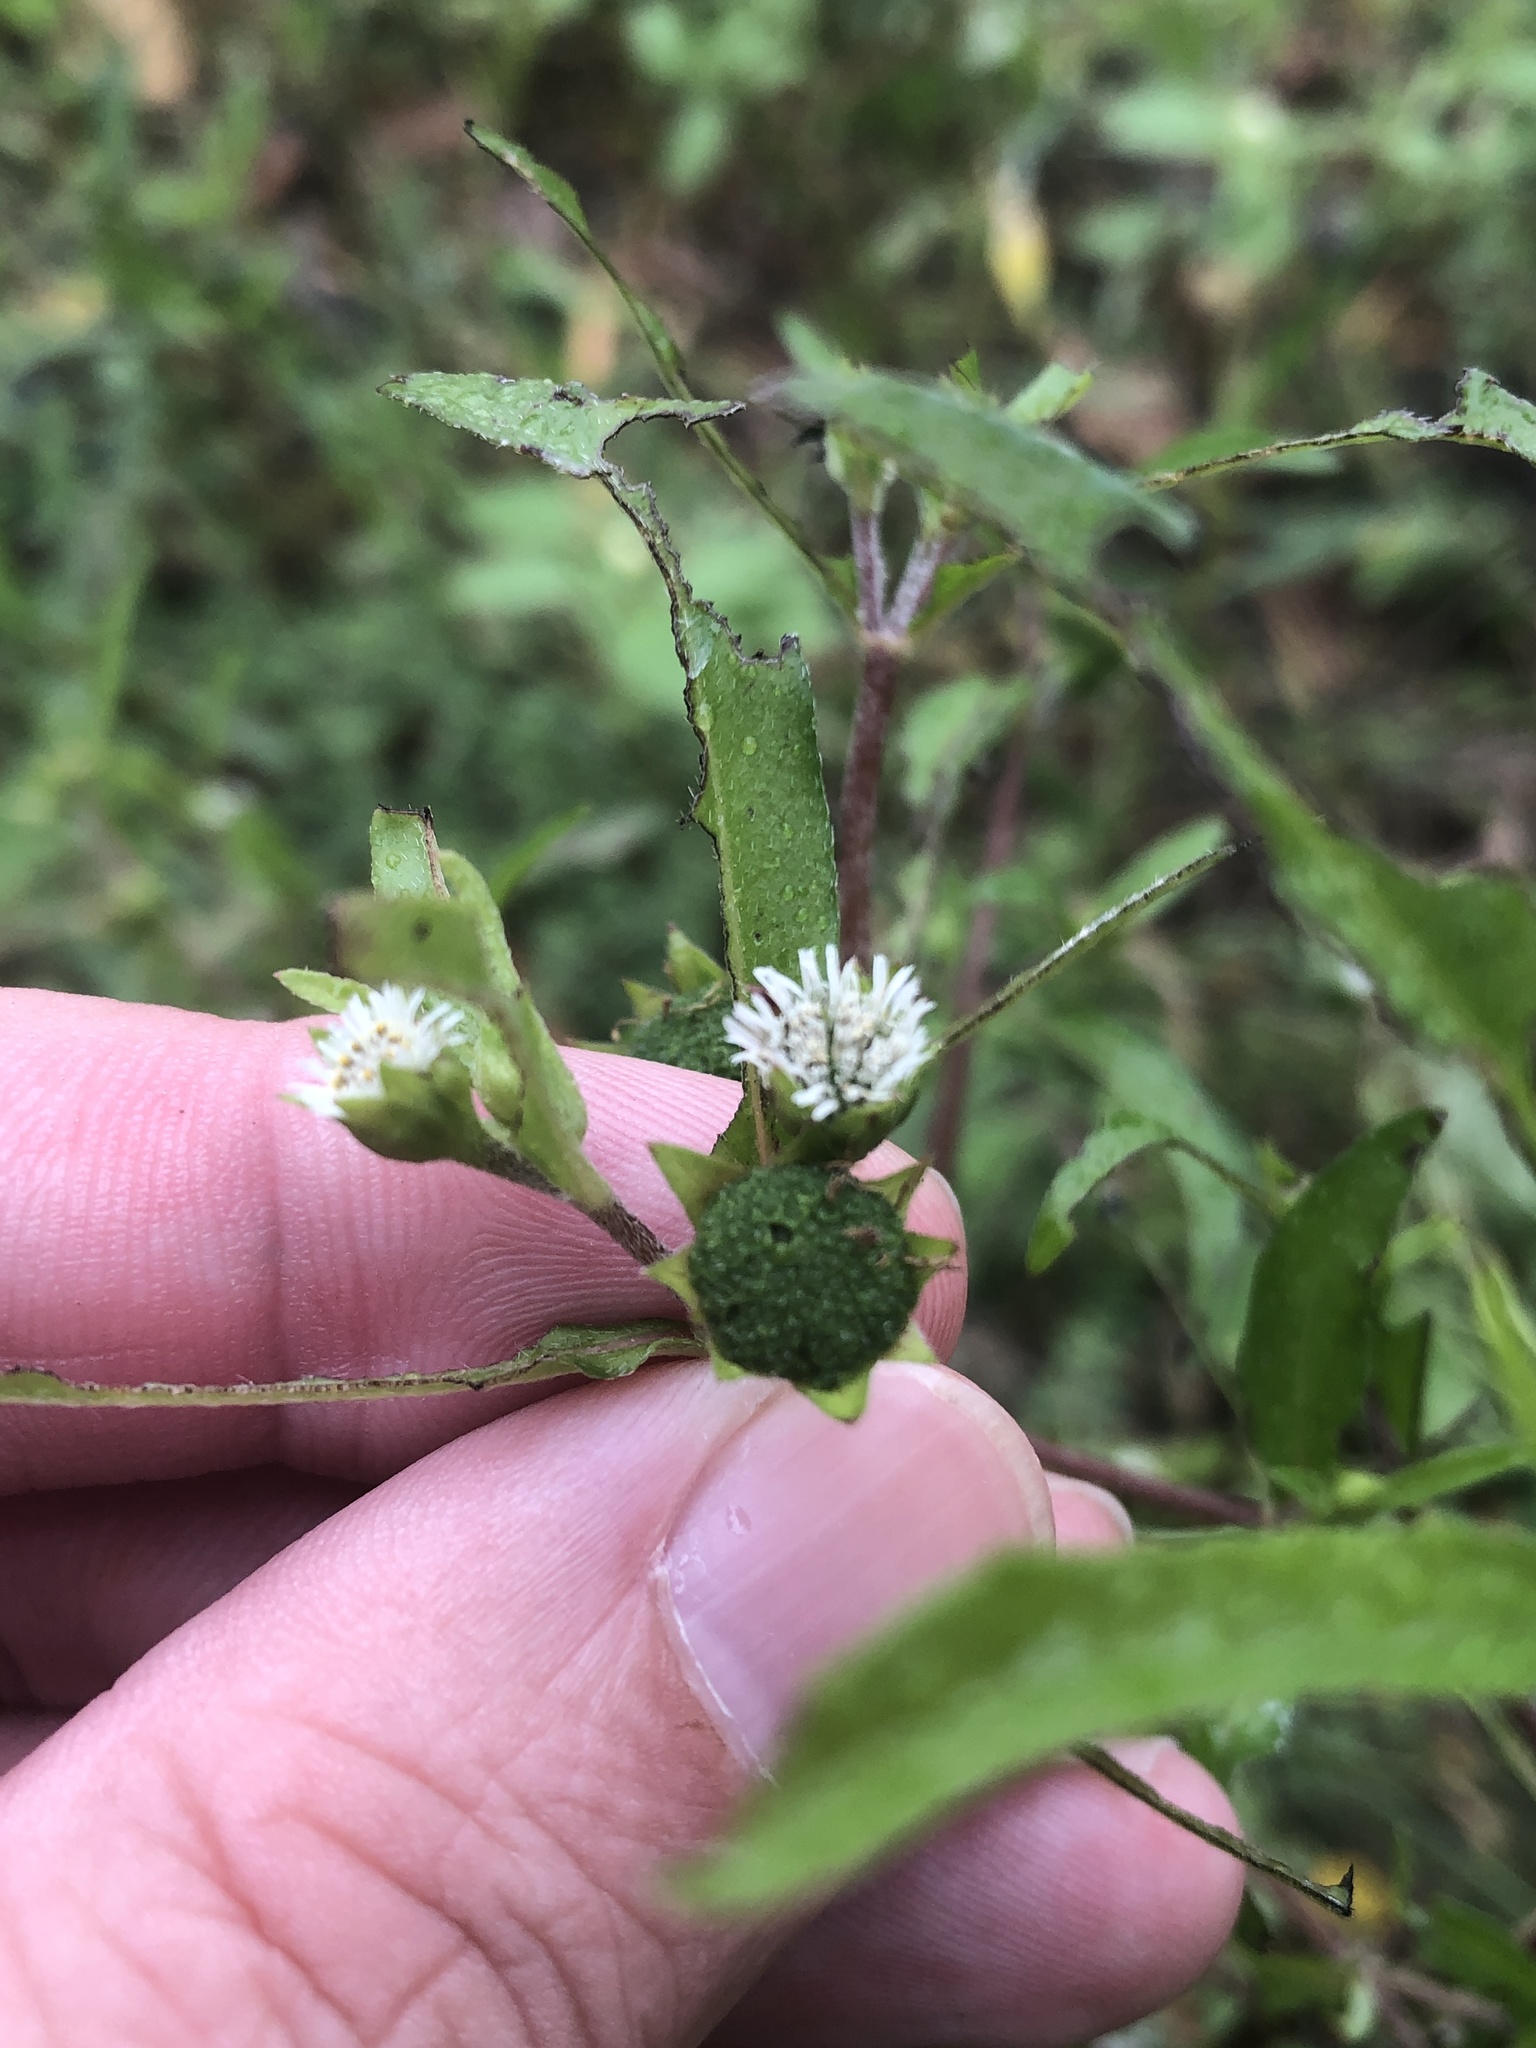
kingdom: Plantae
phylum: Tracheophyta
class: Magnoliopsida
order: Asterales
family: Asteraceae
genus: Eclipta
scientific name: Eclipta prostrata
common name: False daisy
